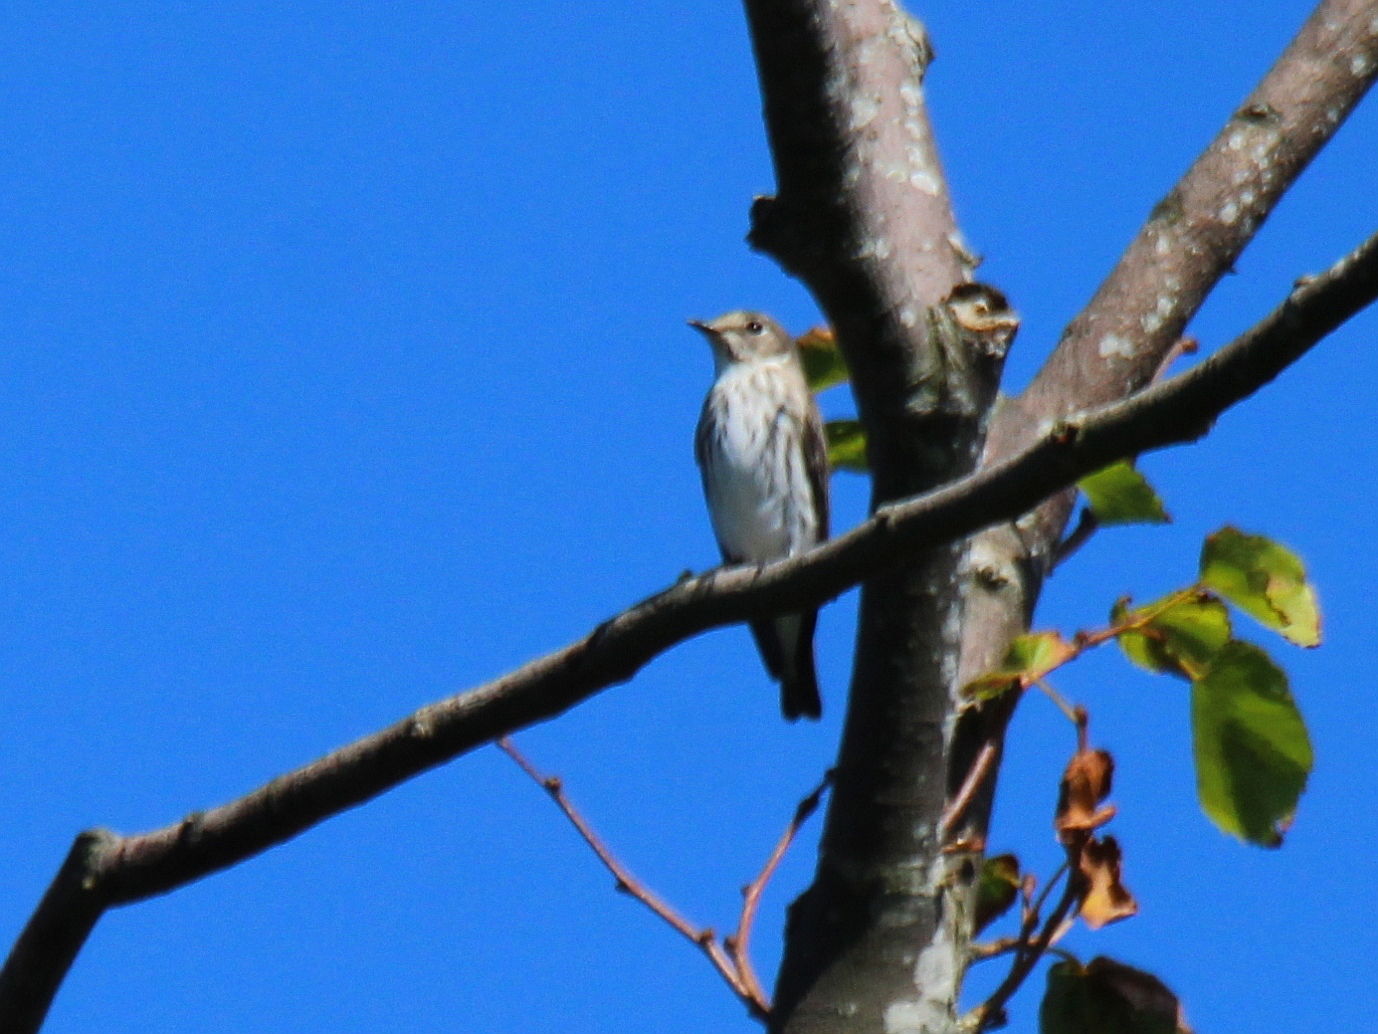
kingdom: Animalia
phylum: Chordata
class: Aves
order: Passeriformes
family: Muscicapidae
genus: Muscicapa
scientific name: Muscicapa griseisticta
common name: Gray-streaked flycatcher
